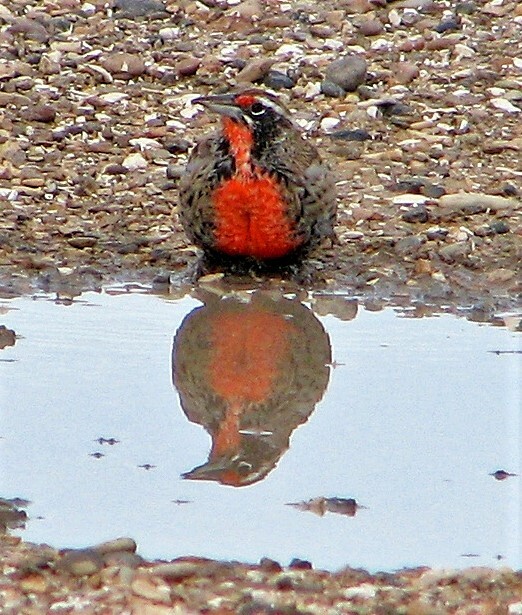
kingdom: Animalia
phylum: Chordata
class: Aves
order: Passeriformes
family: Icteridae
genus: Sturnella
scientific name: Sturnella loyca
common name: Long-tailed meadowlark
